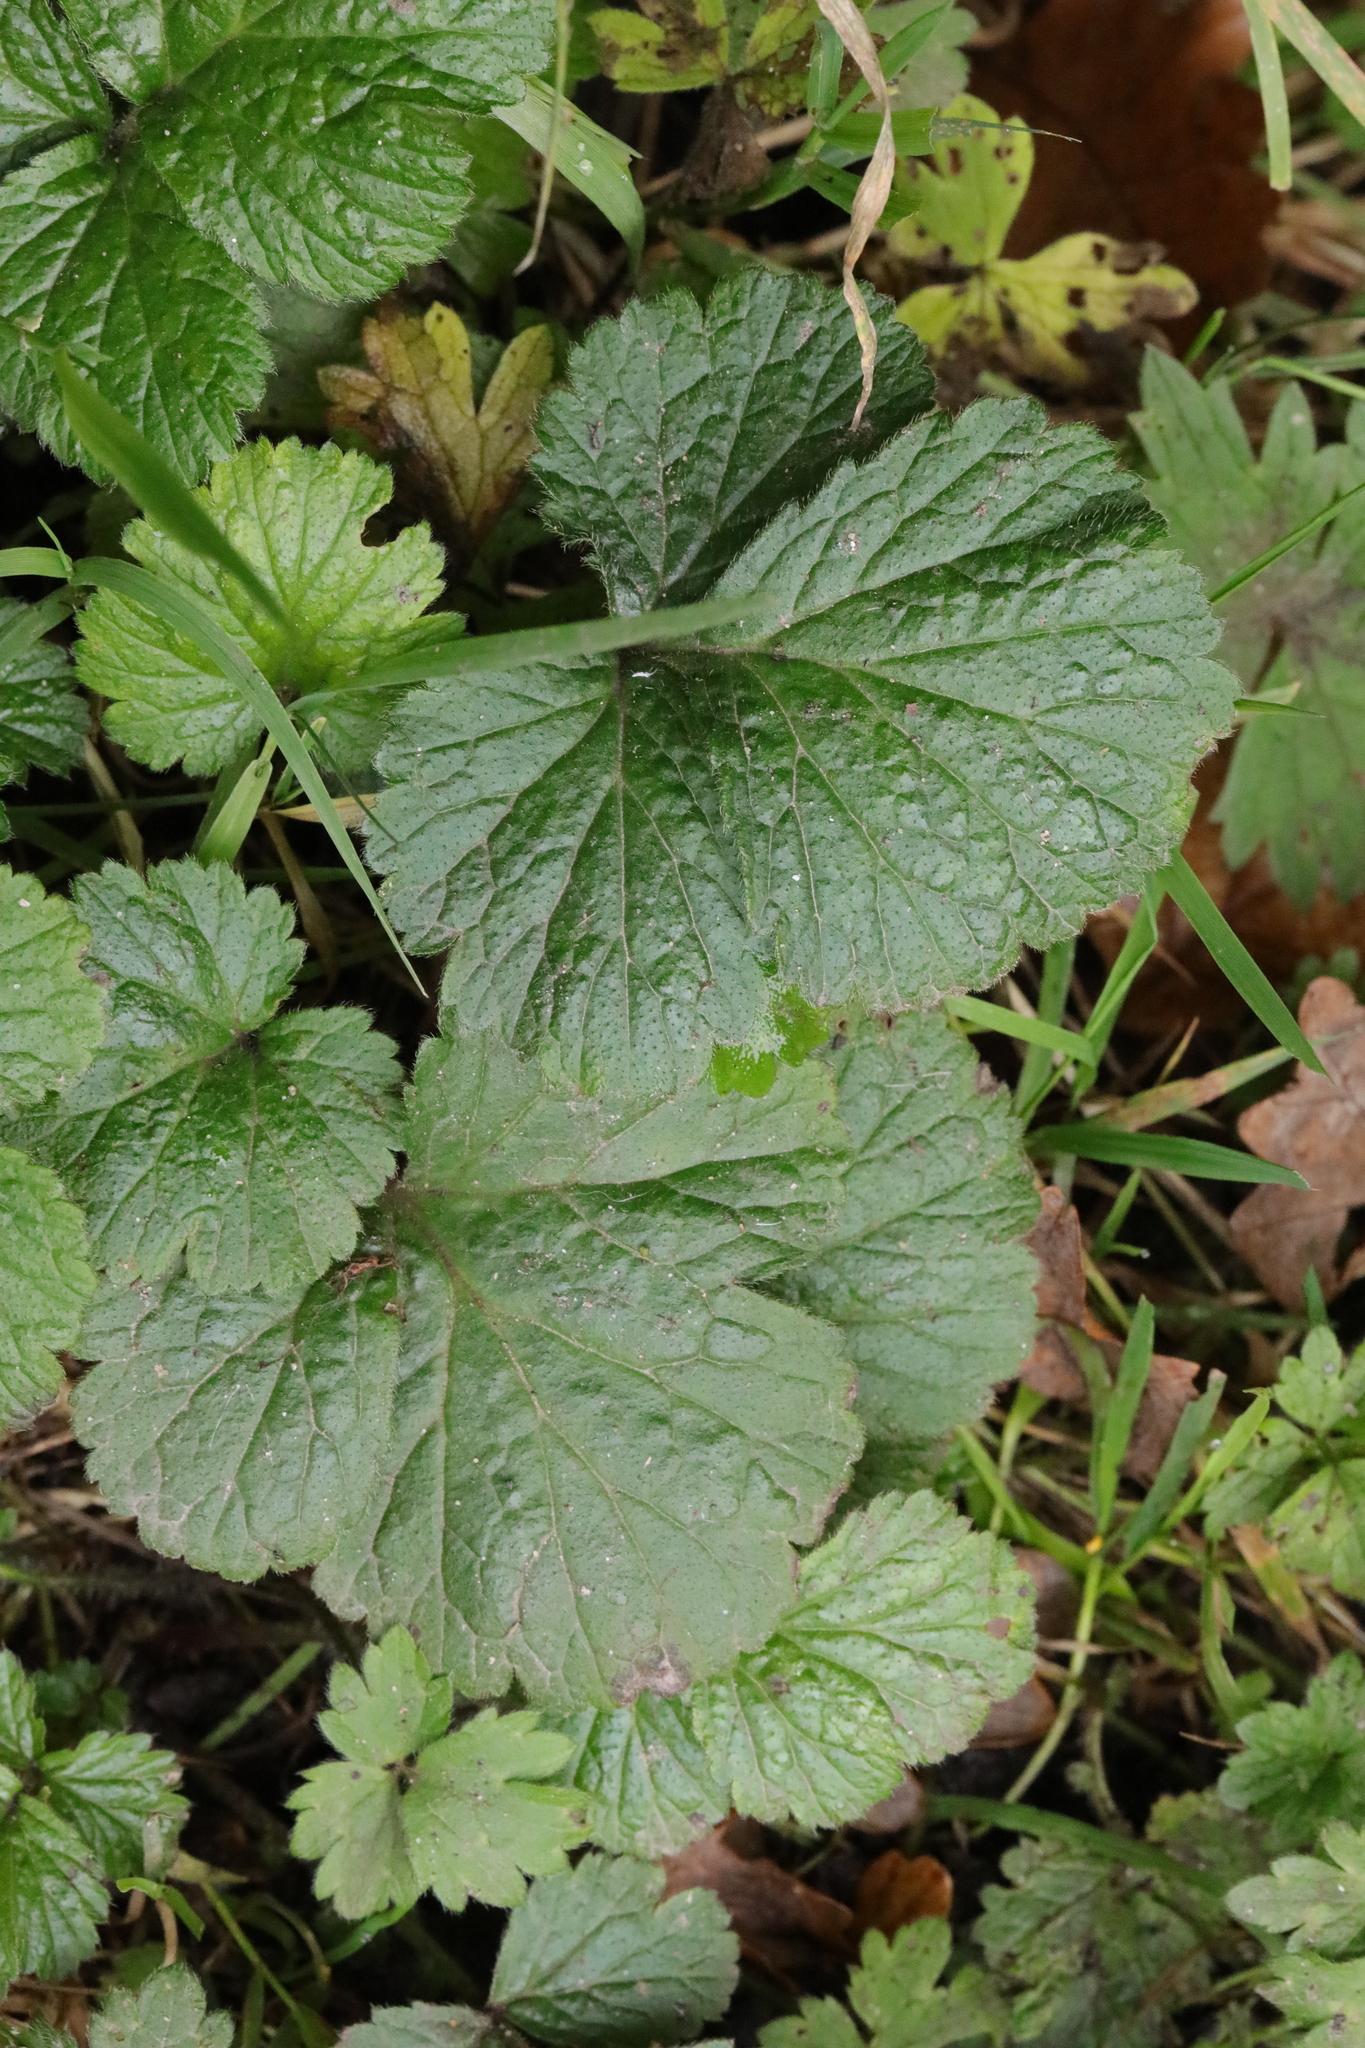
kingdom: Plantae
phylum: Tracheophyta
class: Magnoliopsida
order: Rosales
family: Rosaceae
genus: Geum
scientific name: Geum urbanum
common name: Wood avens
